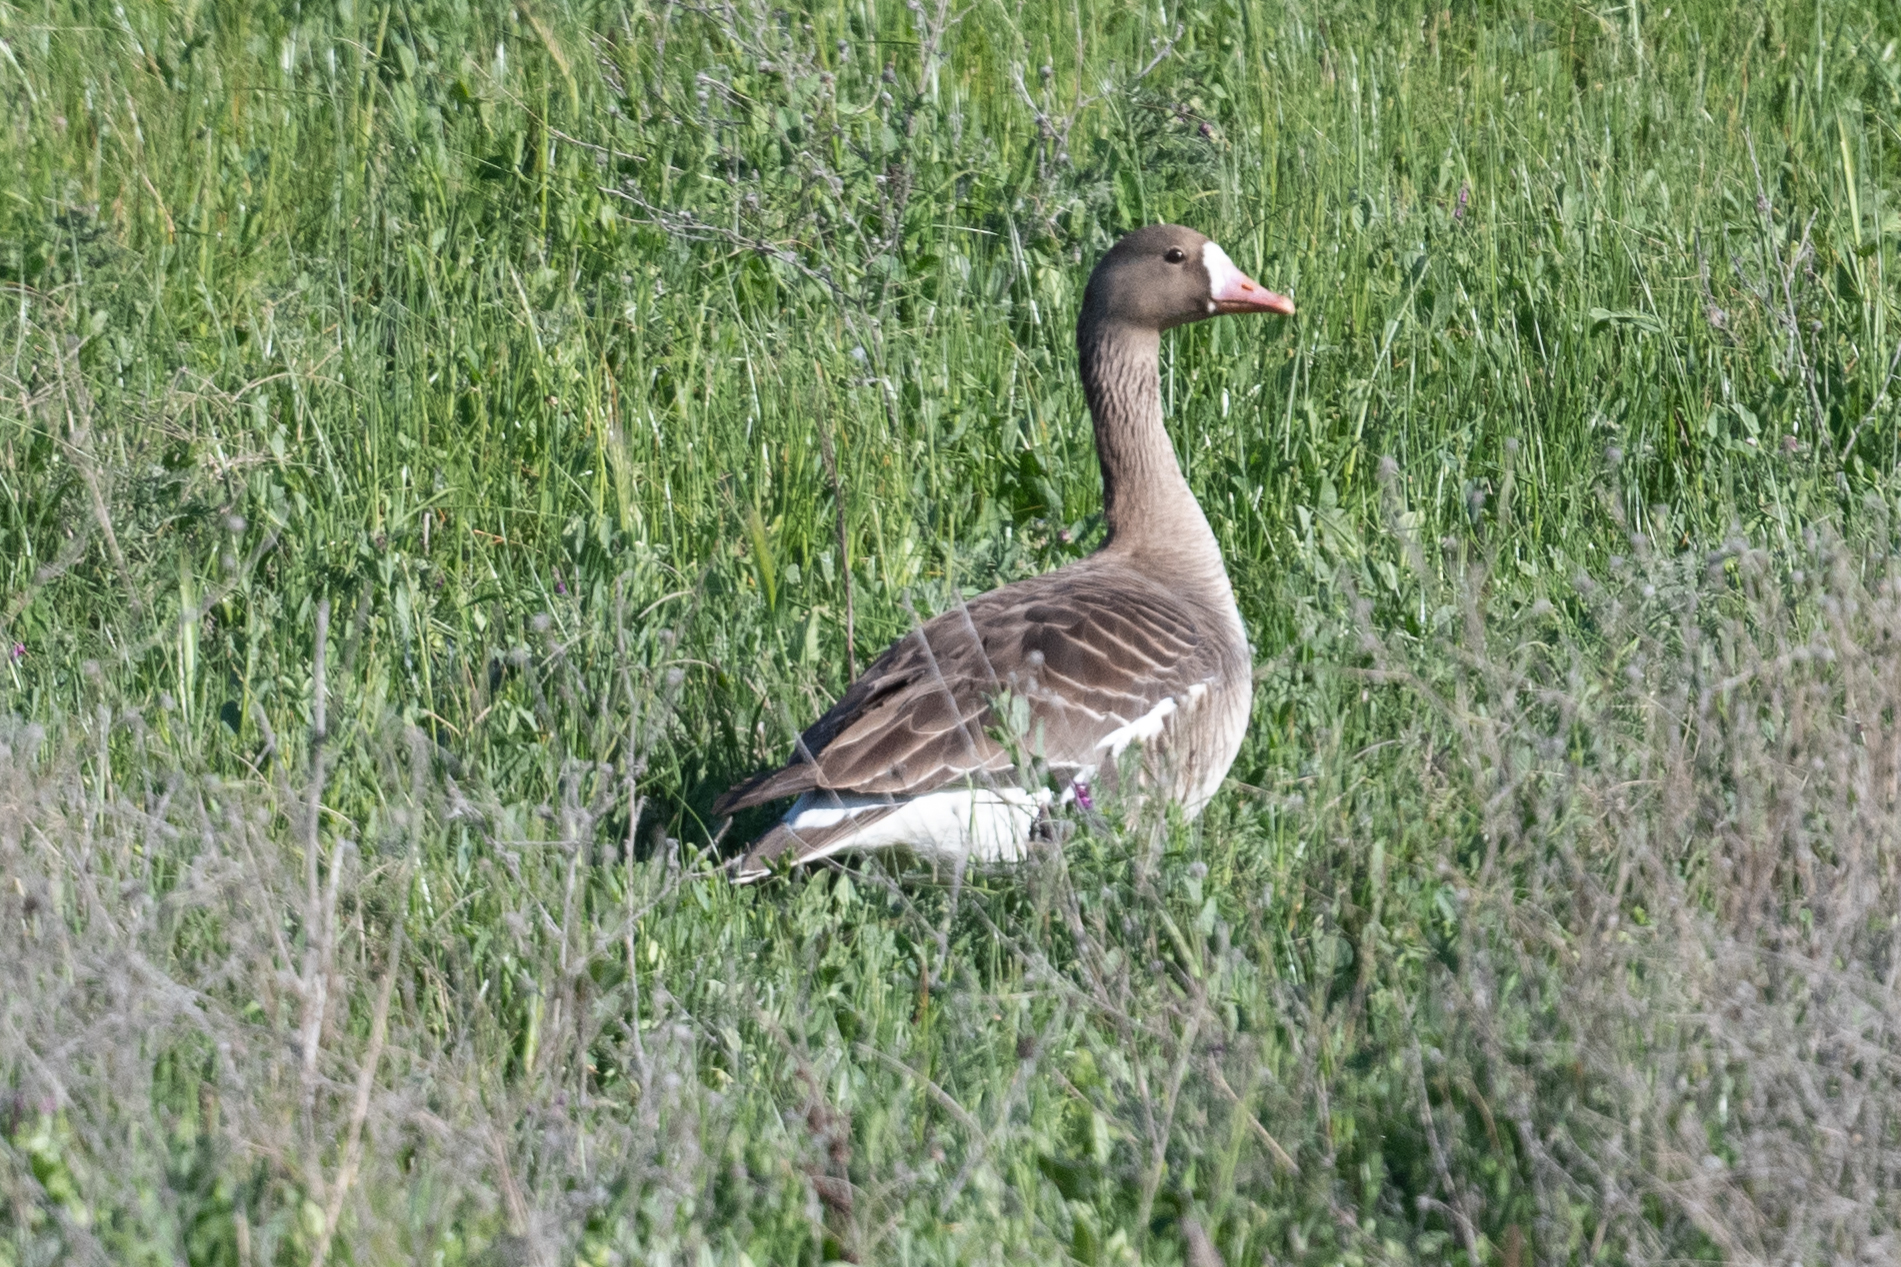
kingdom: Animalia
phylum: Chordata
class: Aves
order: Anseriformes
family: Anatidae
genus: Anser
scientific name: Anser albifrons
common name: Greater white-fronted goose
